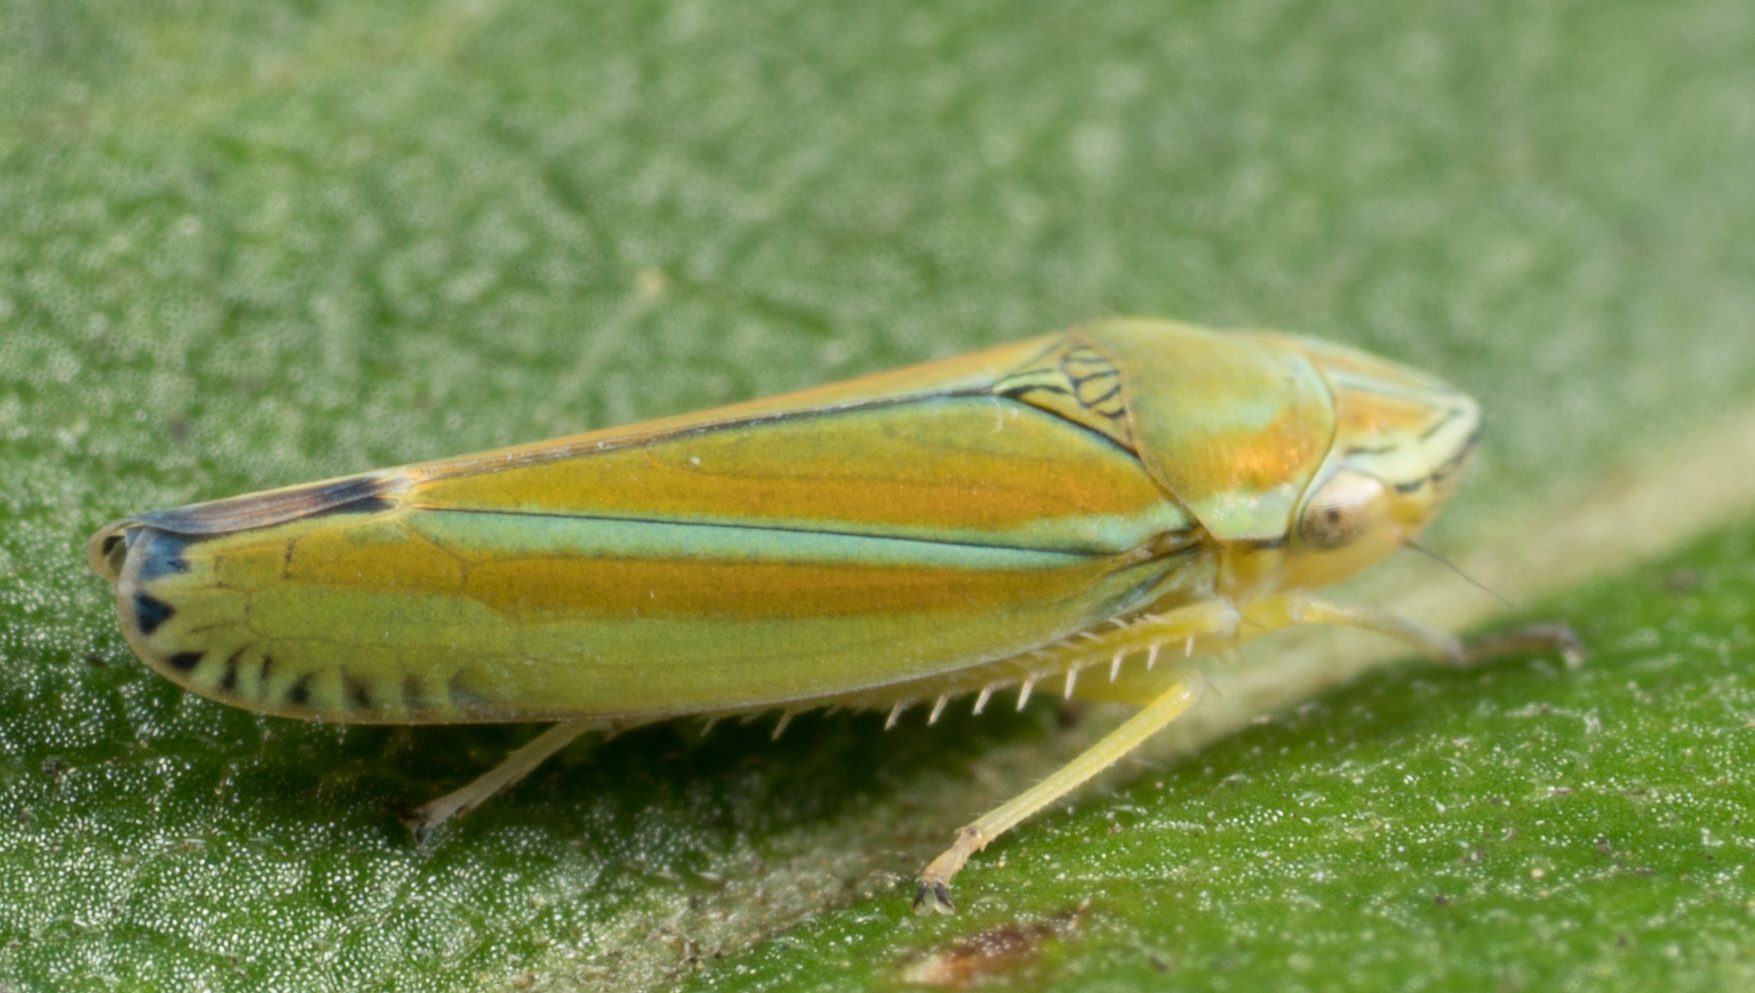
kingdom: Animalia
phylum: Arthropoda
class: Insecta
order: Hemiptera
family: Cicadellidae
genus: Graphocephala
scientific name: Graphocephala versuta
